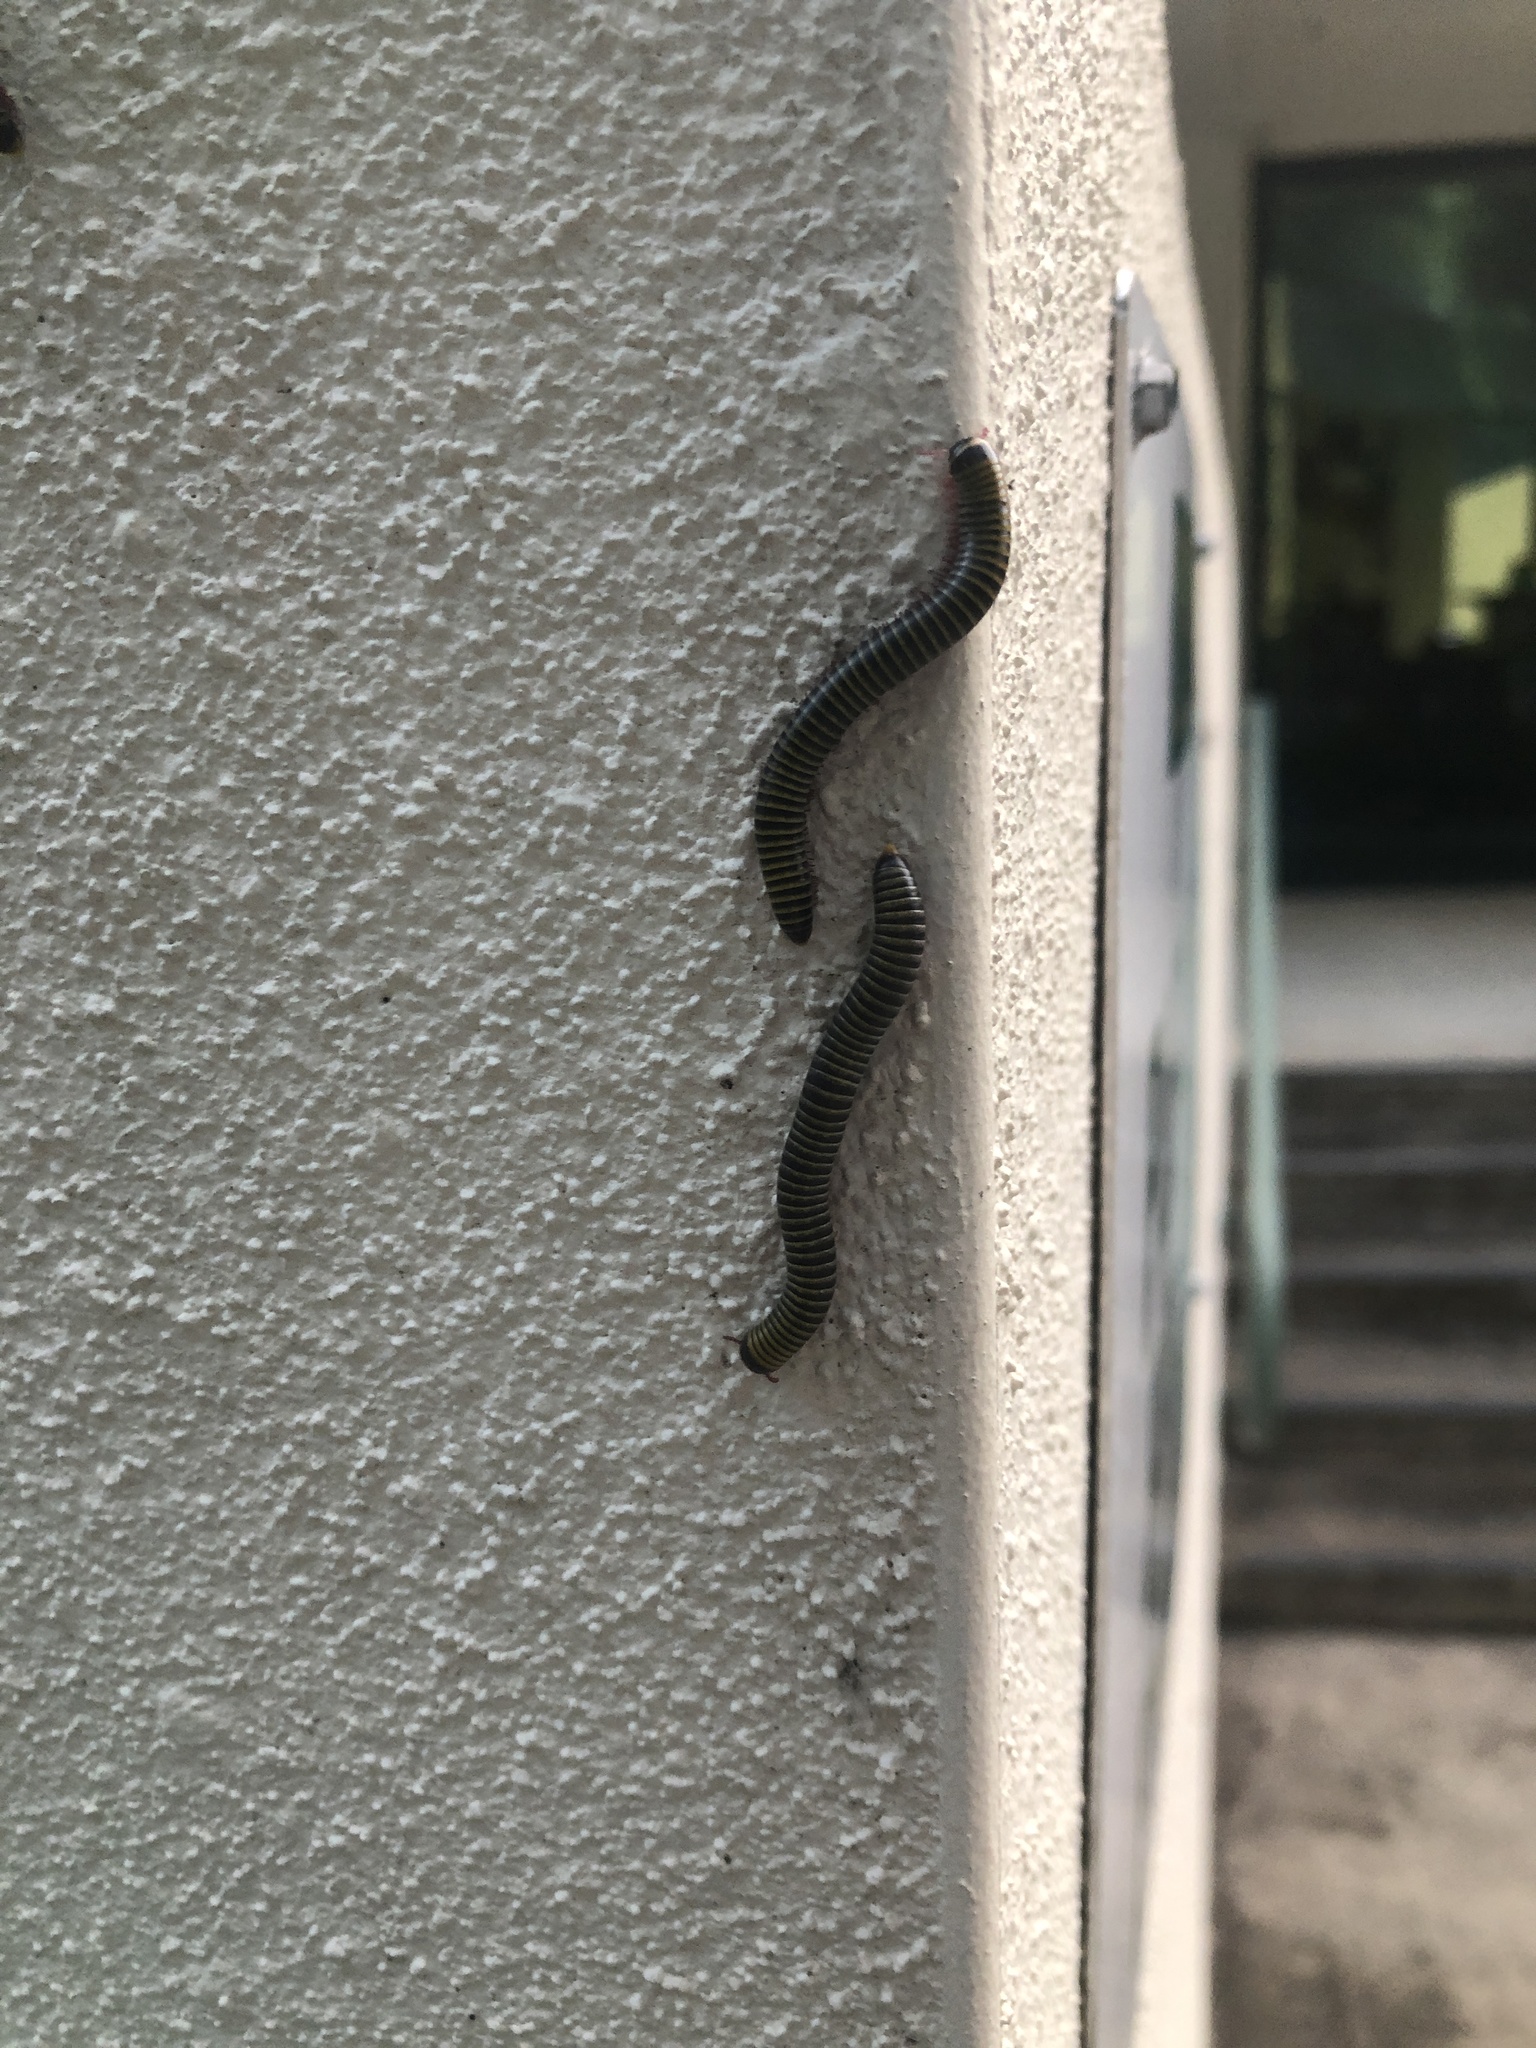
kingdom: Animalia
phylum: Arthropoda
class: Diplopoda
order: Spirobolida
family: Rhinocricidae
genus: Anadenobolus
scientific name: Anadenobolus monilicornis
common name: Caribbean millipede
